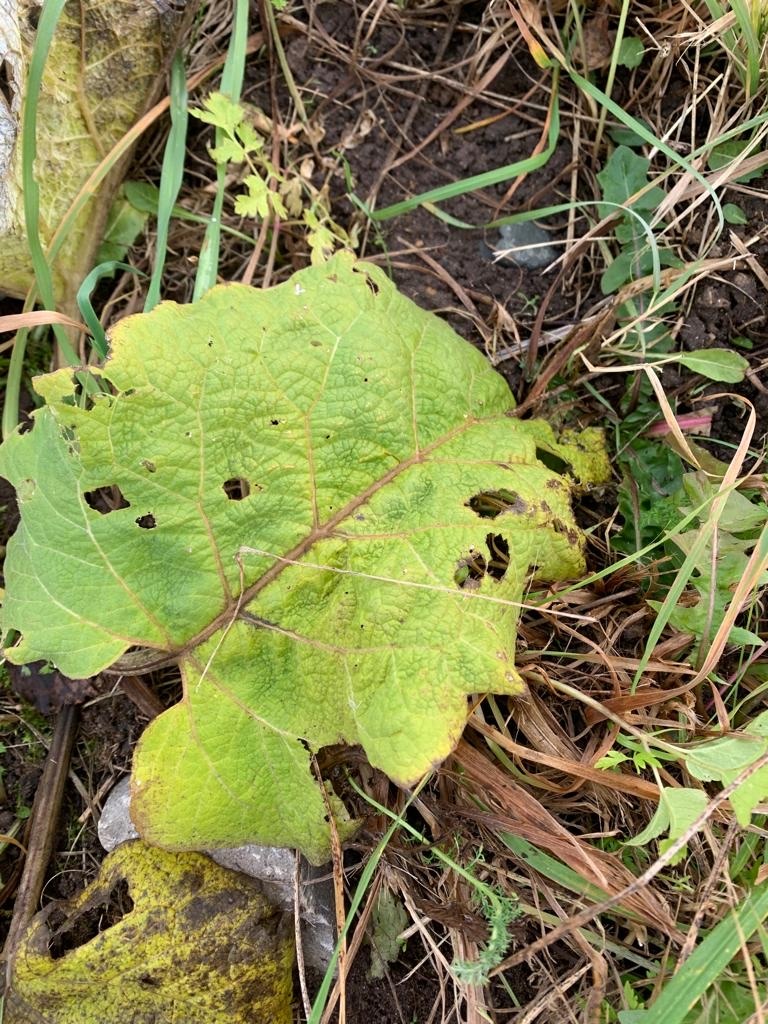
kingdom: Plantae
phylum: Tracheophyta
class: Magnoliopsida
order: Asterales
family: Asteraceae
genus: Arctium
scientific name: Arctium
